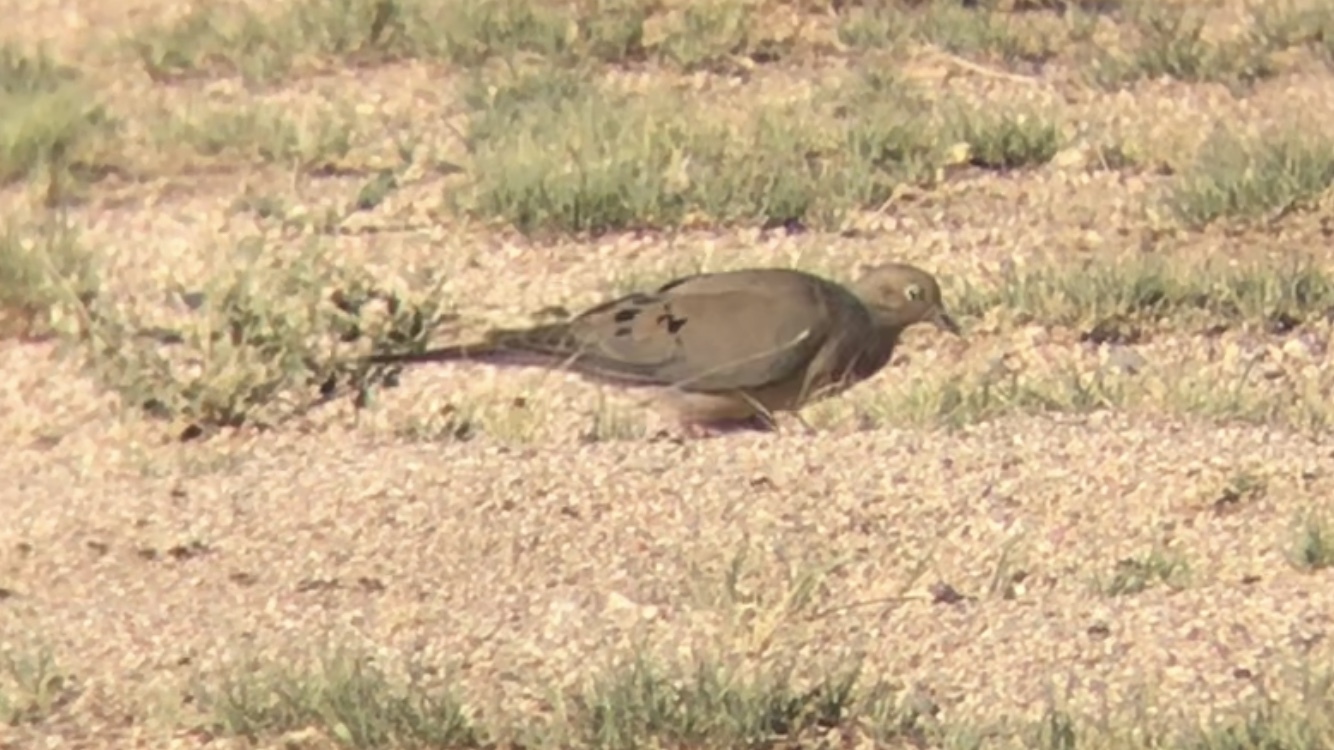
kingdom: Animalia
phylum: Chordata
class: Aves
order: Columbiformes
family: Columbidae
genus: Zenaida
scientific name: Zenaida macroura
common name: Mourning dove
